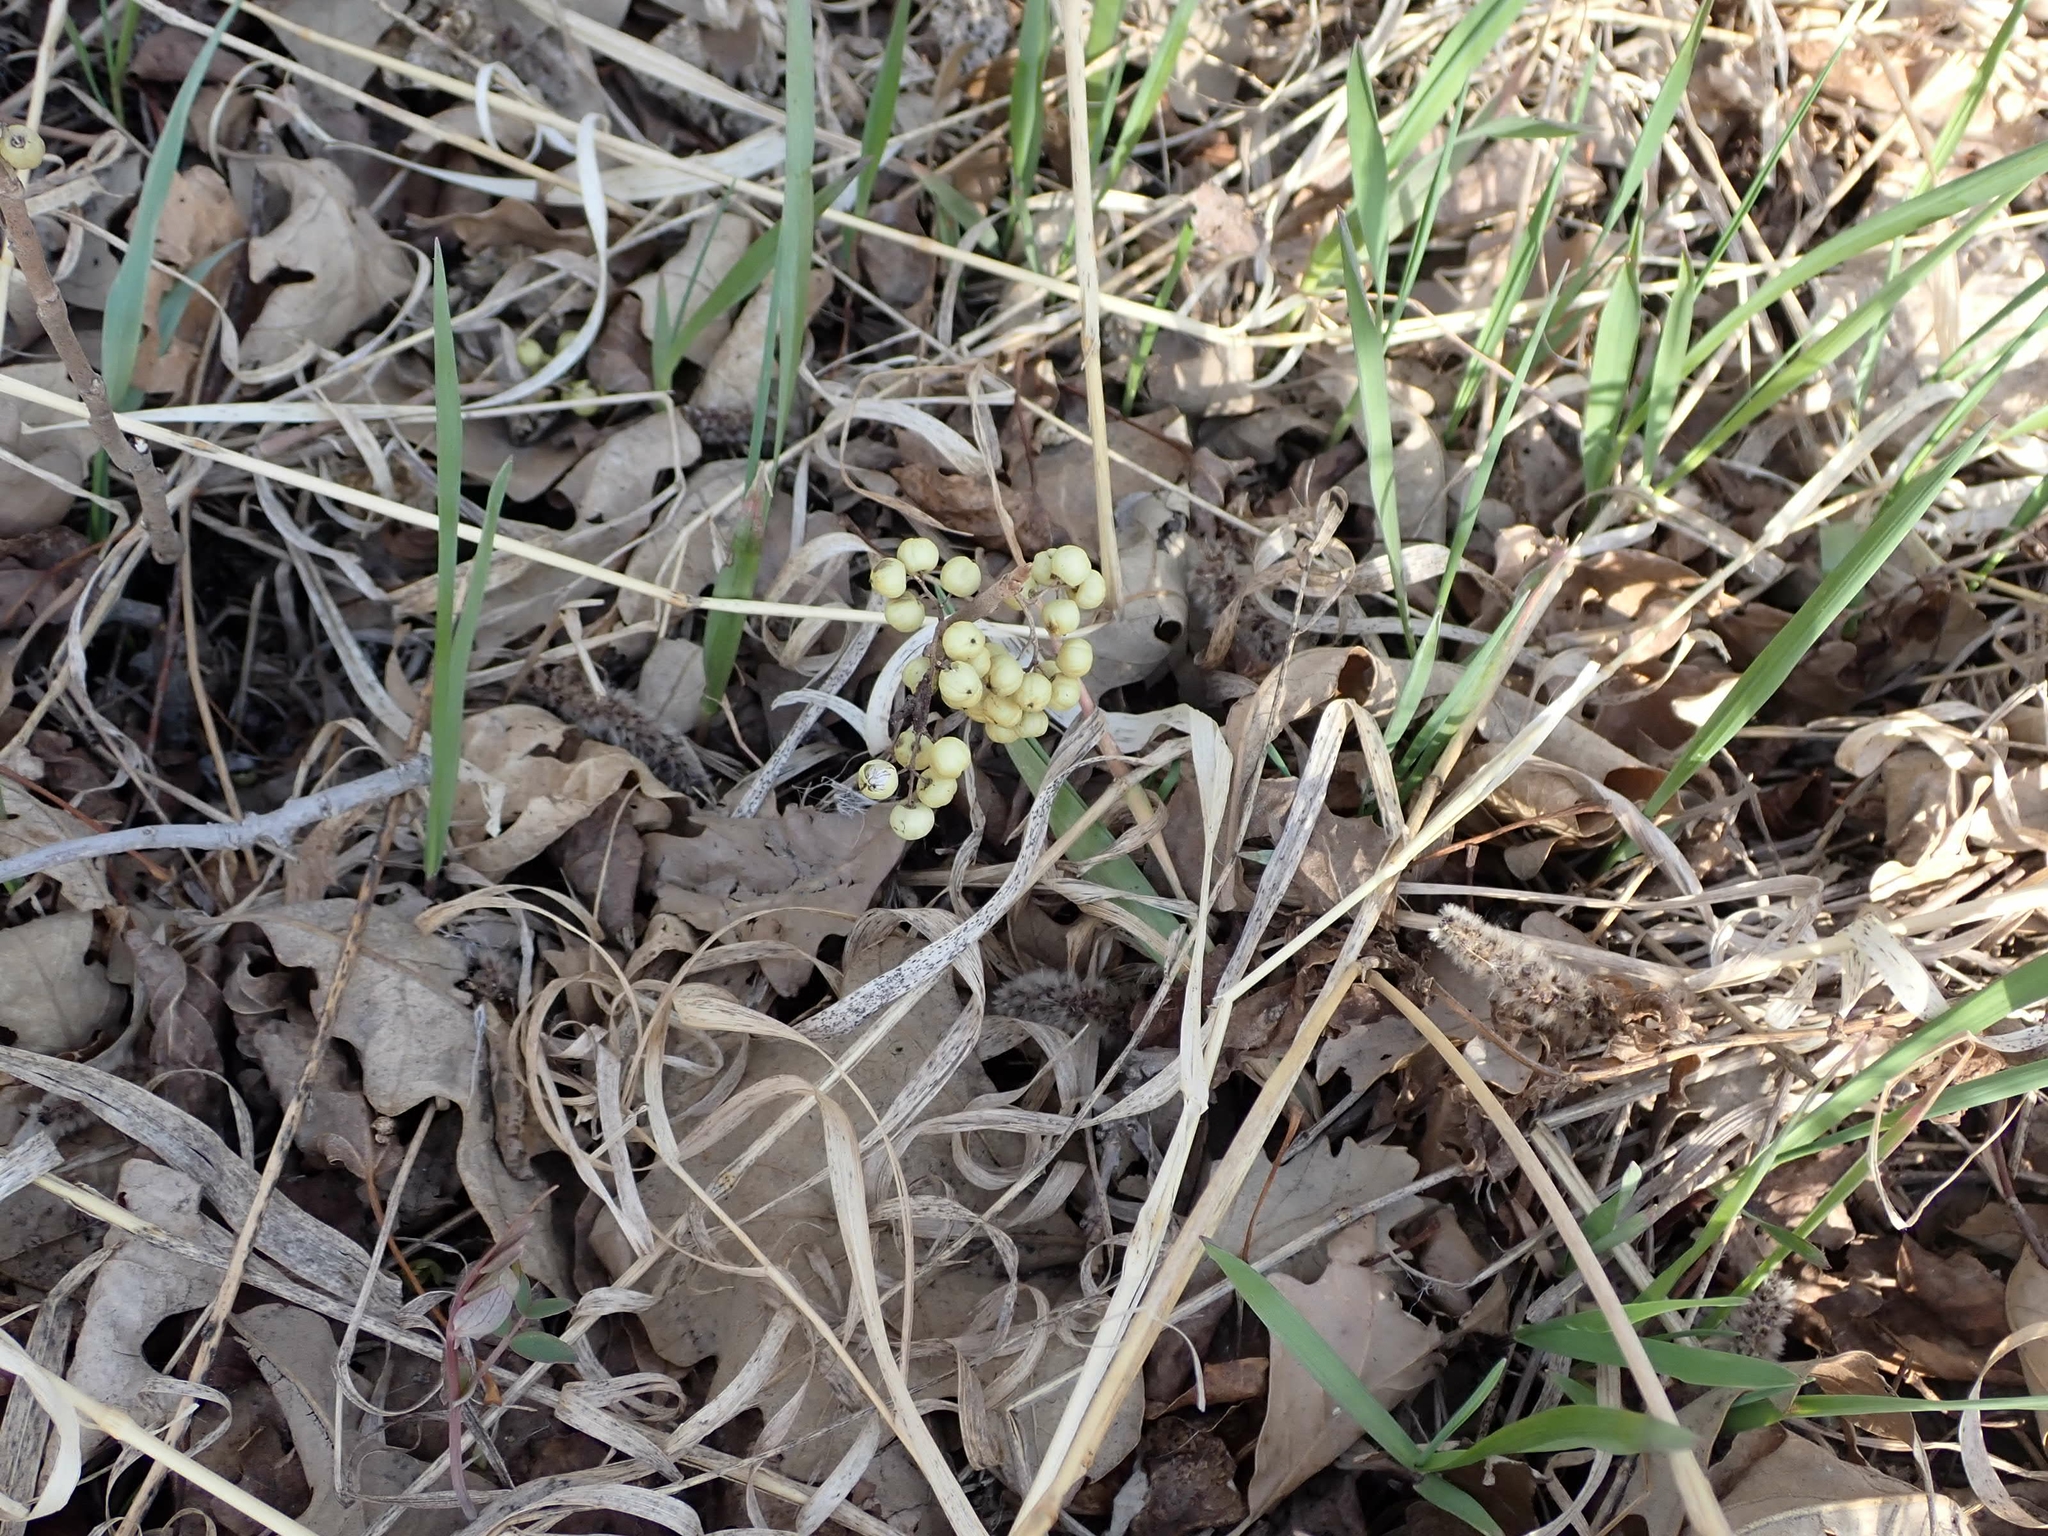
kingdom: Plantae
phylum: Tracheophyta
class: Magnoliopsida
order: Sapindales
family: Anacardiaceae
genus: Toxicodendron
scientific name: Toxicodendron rydbergii
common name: Rydberg's poison-ivy
